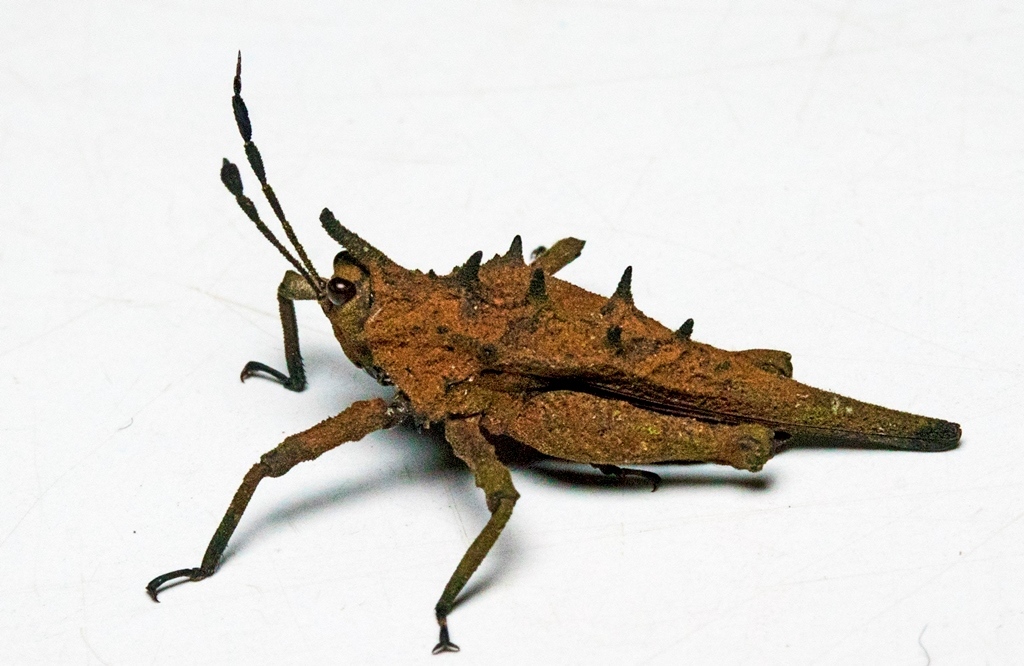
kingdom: Animalia
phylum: Arthropoda
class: Insecta
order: Orthoptera
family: Tetrigidae
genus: Discotettix
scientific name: Discotettix belzebuth
